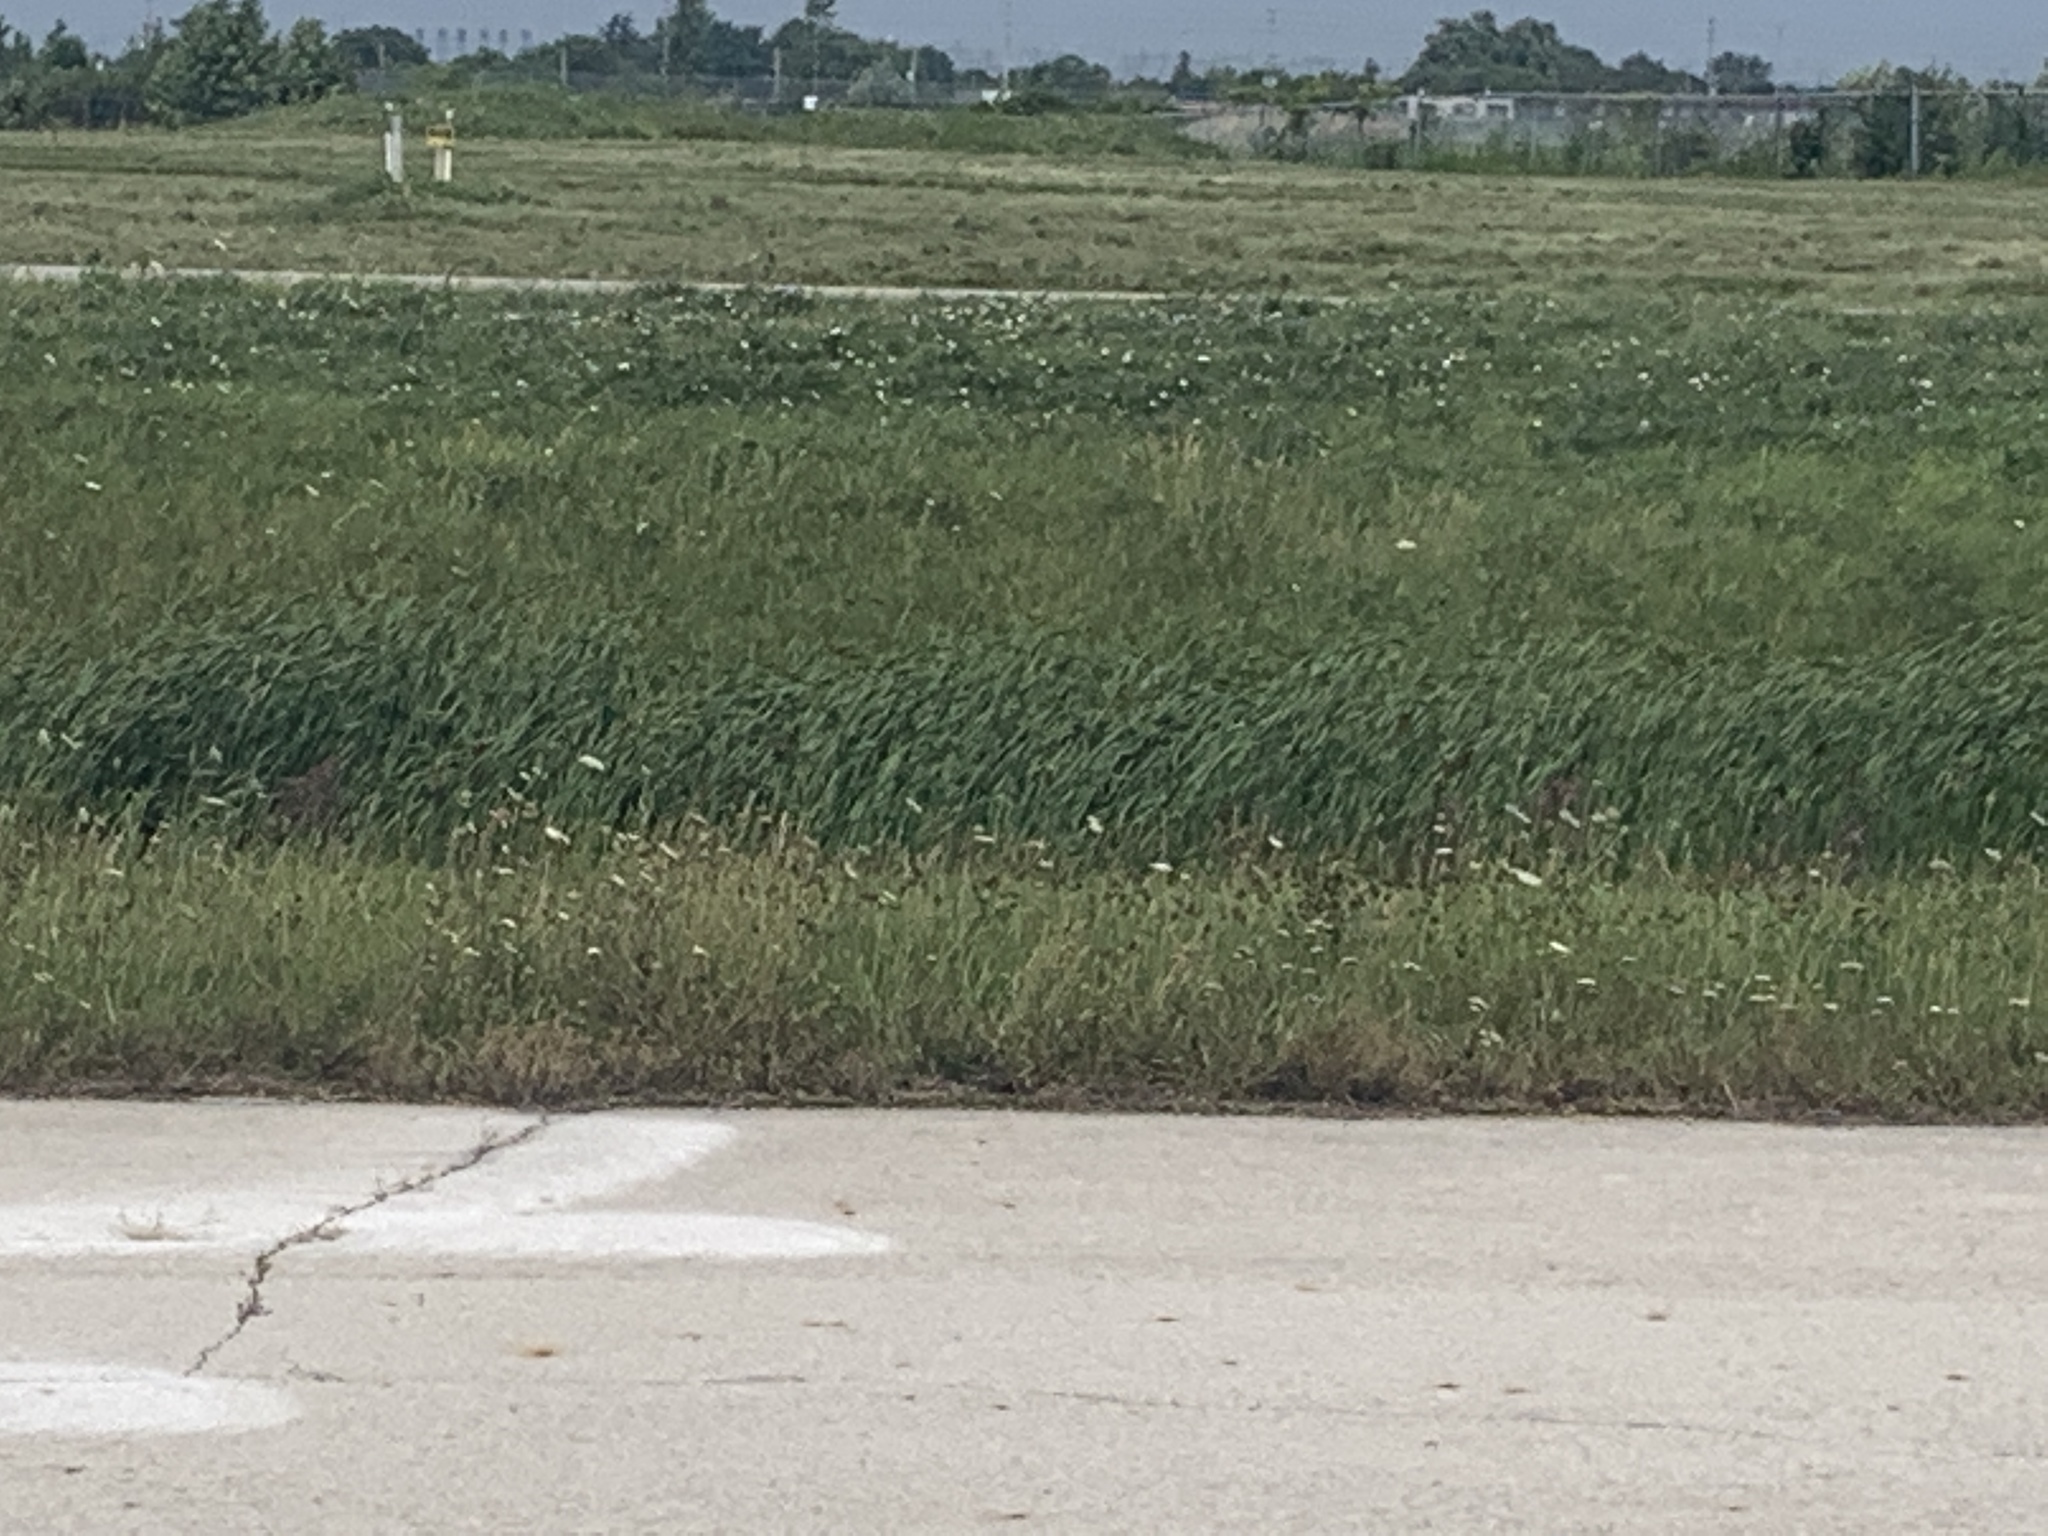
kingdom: Plantae
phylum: Tracheophyta
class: Magnoliopsida
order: Apiales
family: Apiaceae
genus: Daucus
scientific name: Daucus carota
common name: Wild carrot
